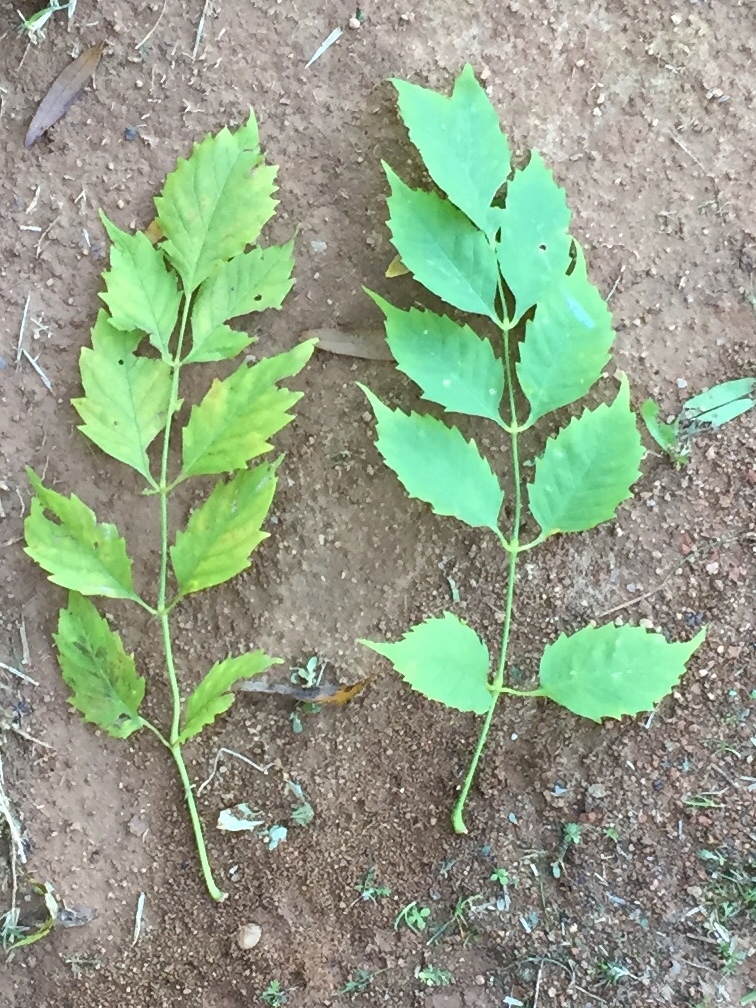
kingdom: Plantae
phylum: Tracheophyta
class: Magnoliopsida
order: Lamiales
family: Bignoniaceae
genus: Campsis
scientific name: Campsis radicans
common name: Trumpet-creeper
